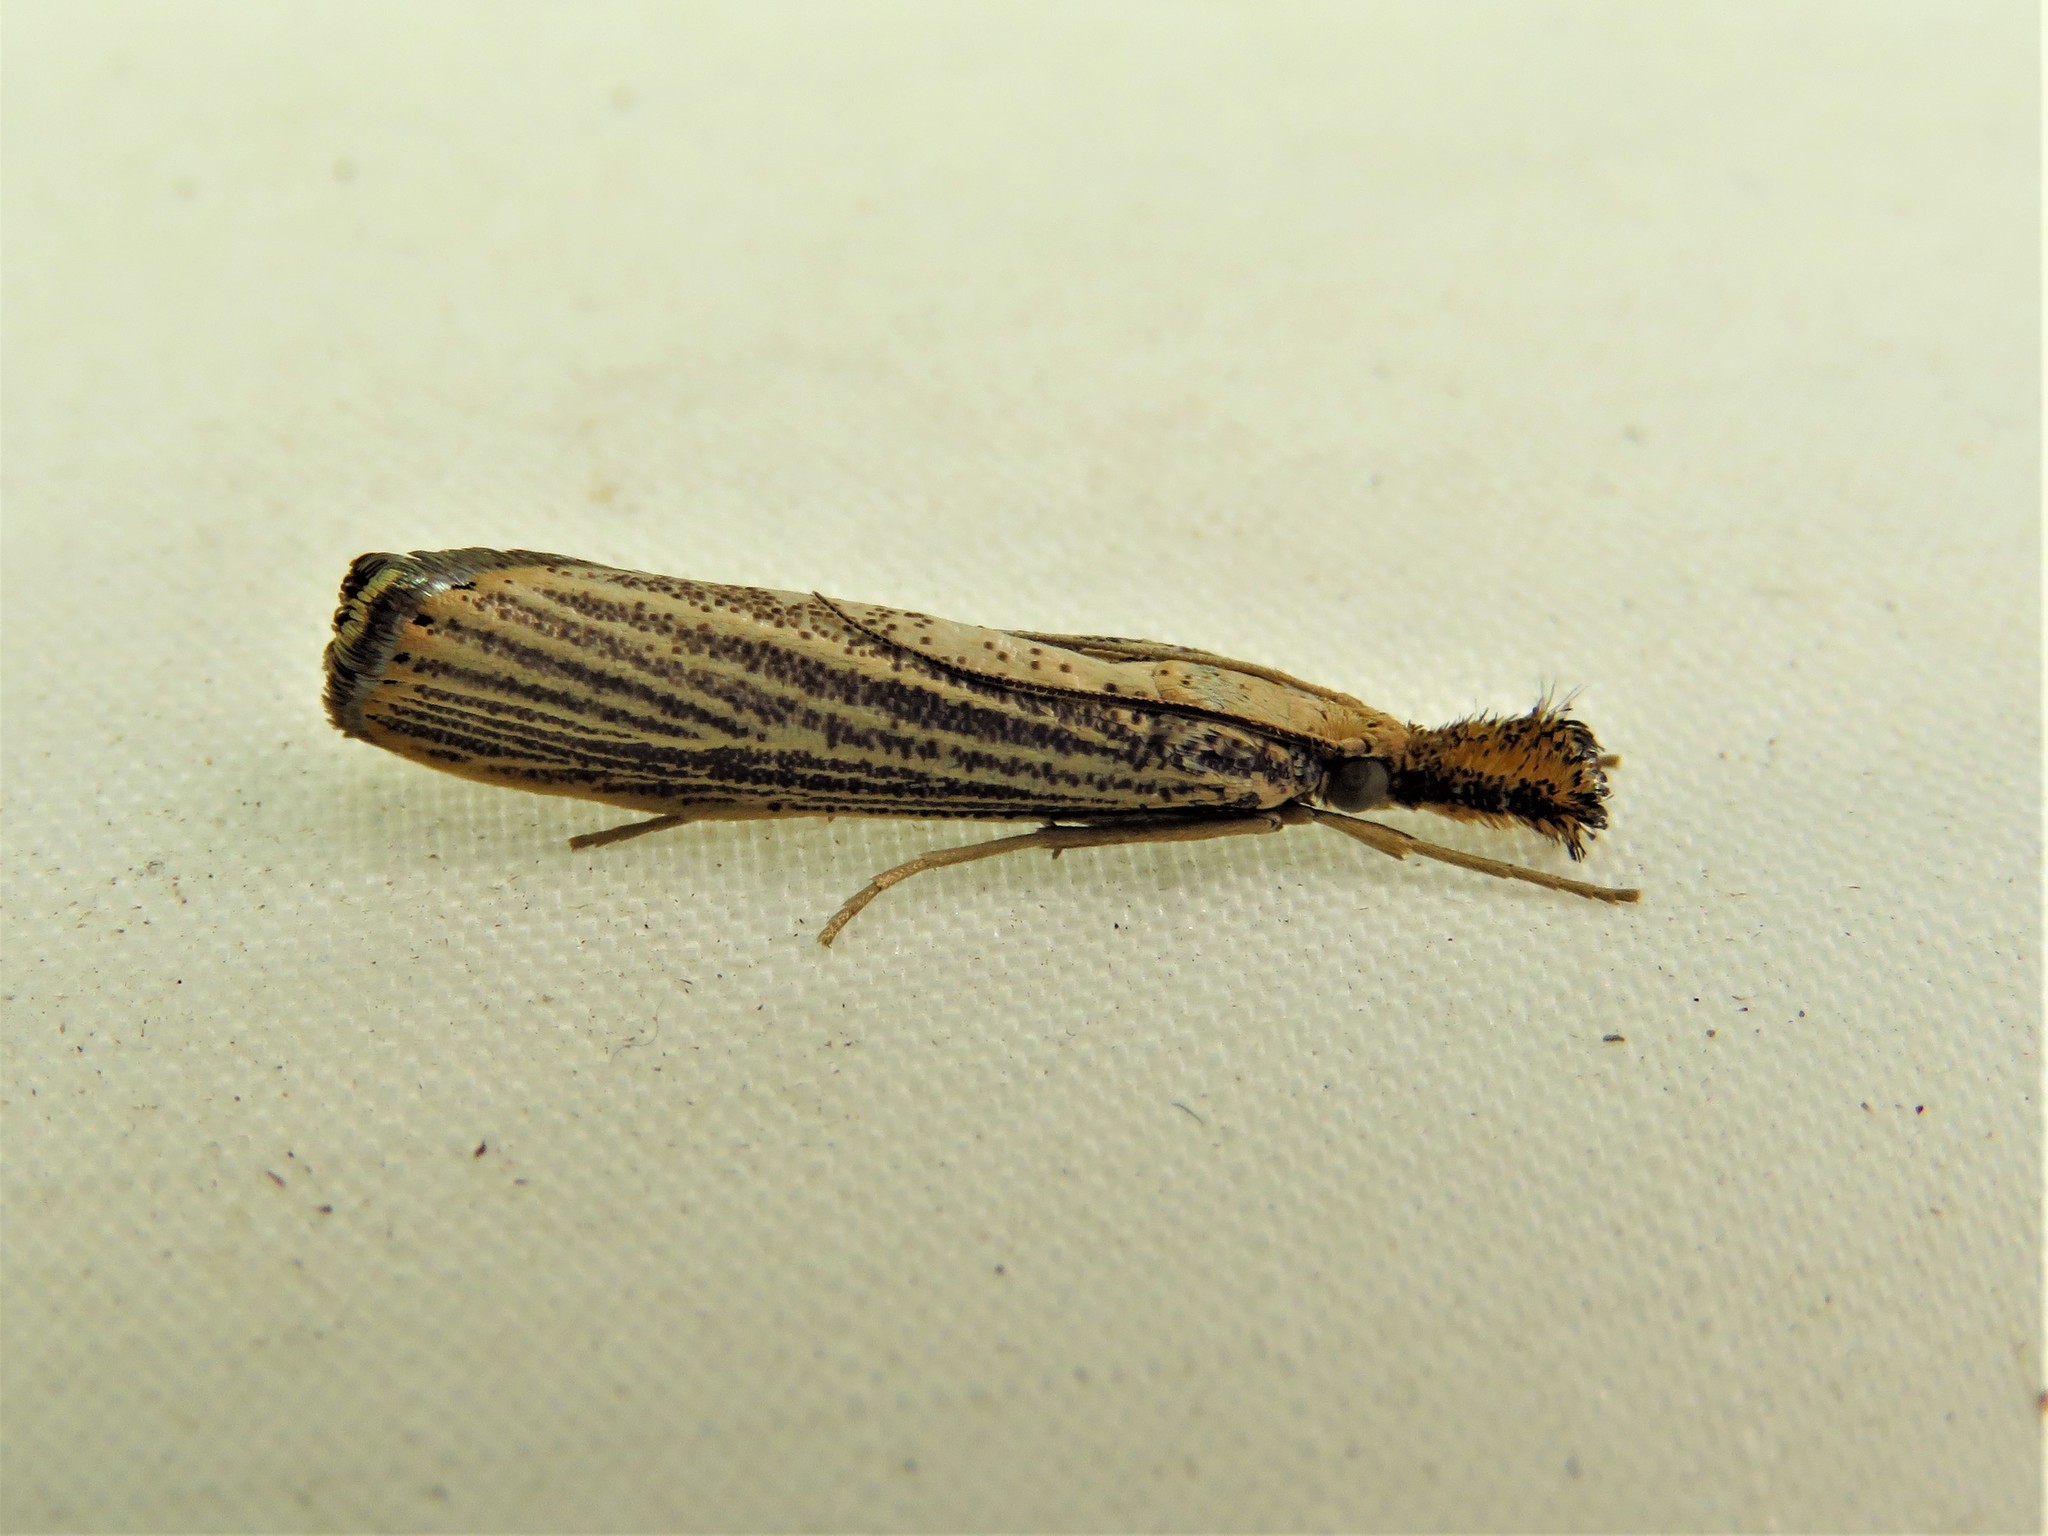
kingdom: Animalia
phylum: Arthropoda
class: Insecta
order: Lepidoptera
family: Crambidae
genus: Agriphila
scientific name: Agriphila vulgivagellus
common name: Vagabond crambus moth
